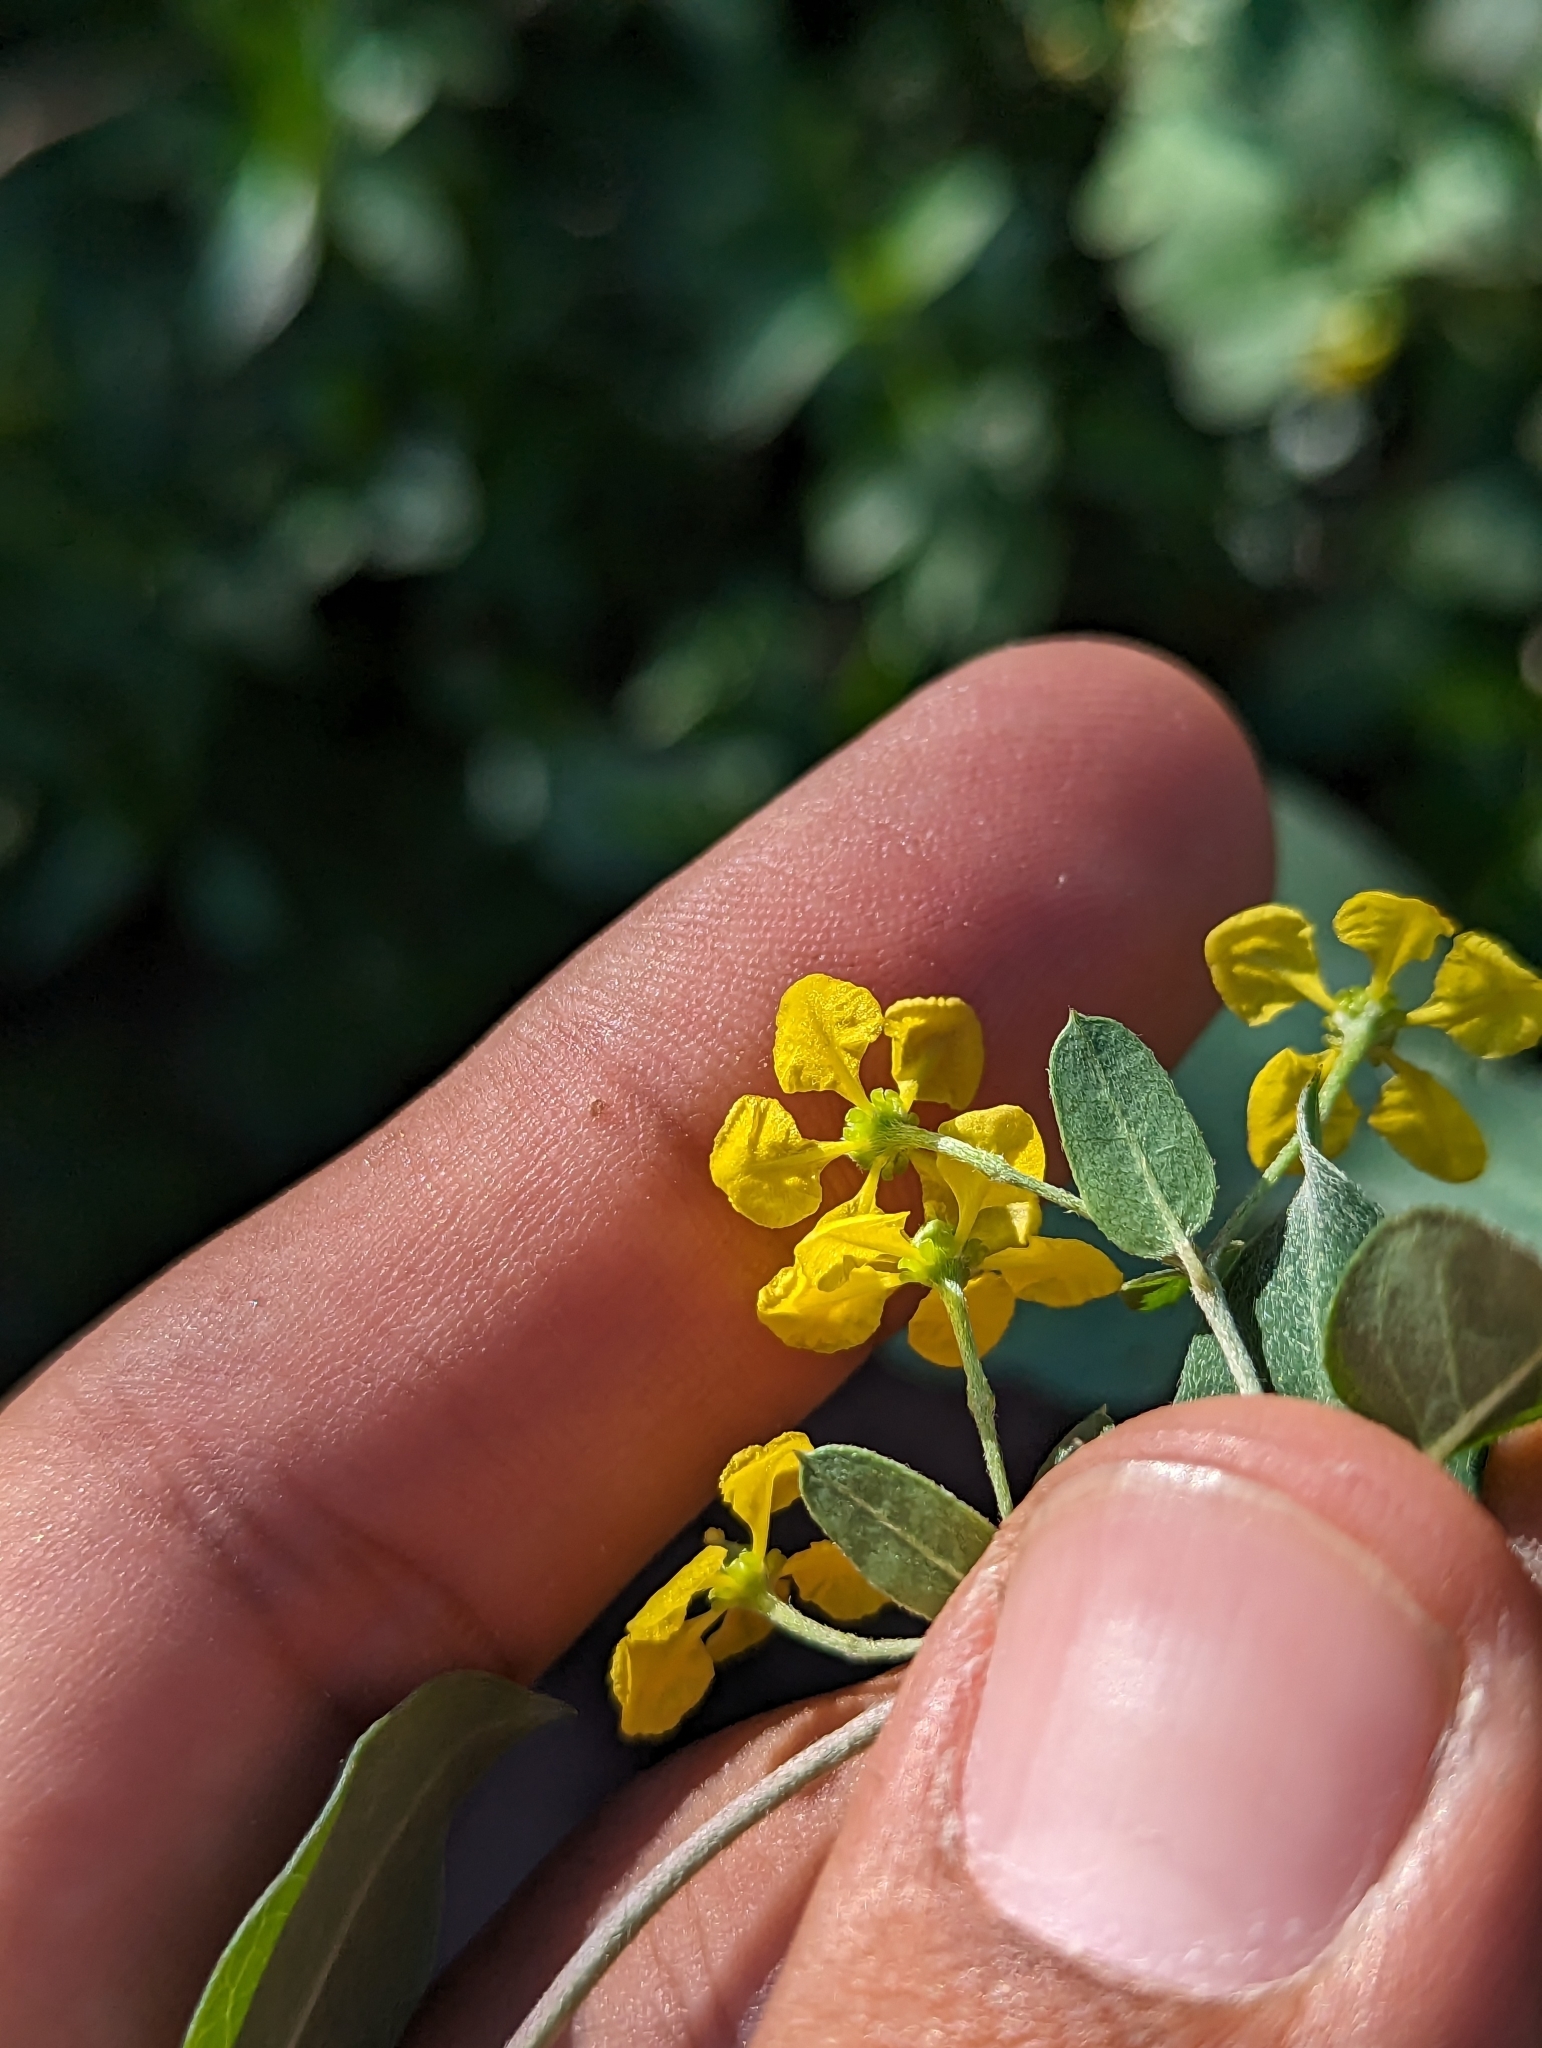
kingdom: Plantae
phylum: Tracheophyta
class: Magnoliopsida
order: Malpighiales
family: Malpighiaceae
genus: Cottsia
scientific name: Cottsia californica
